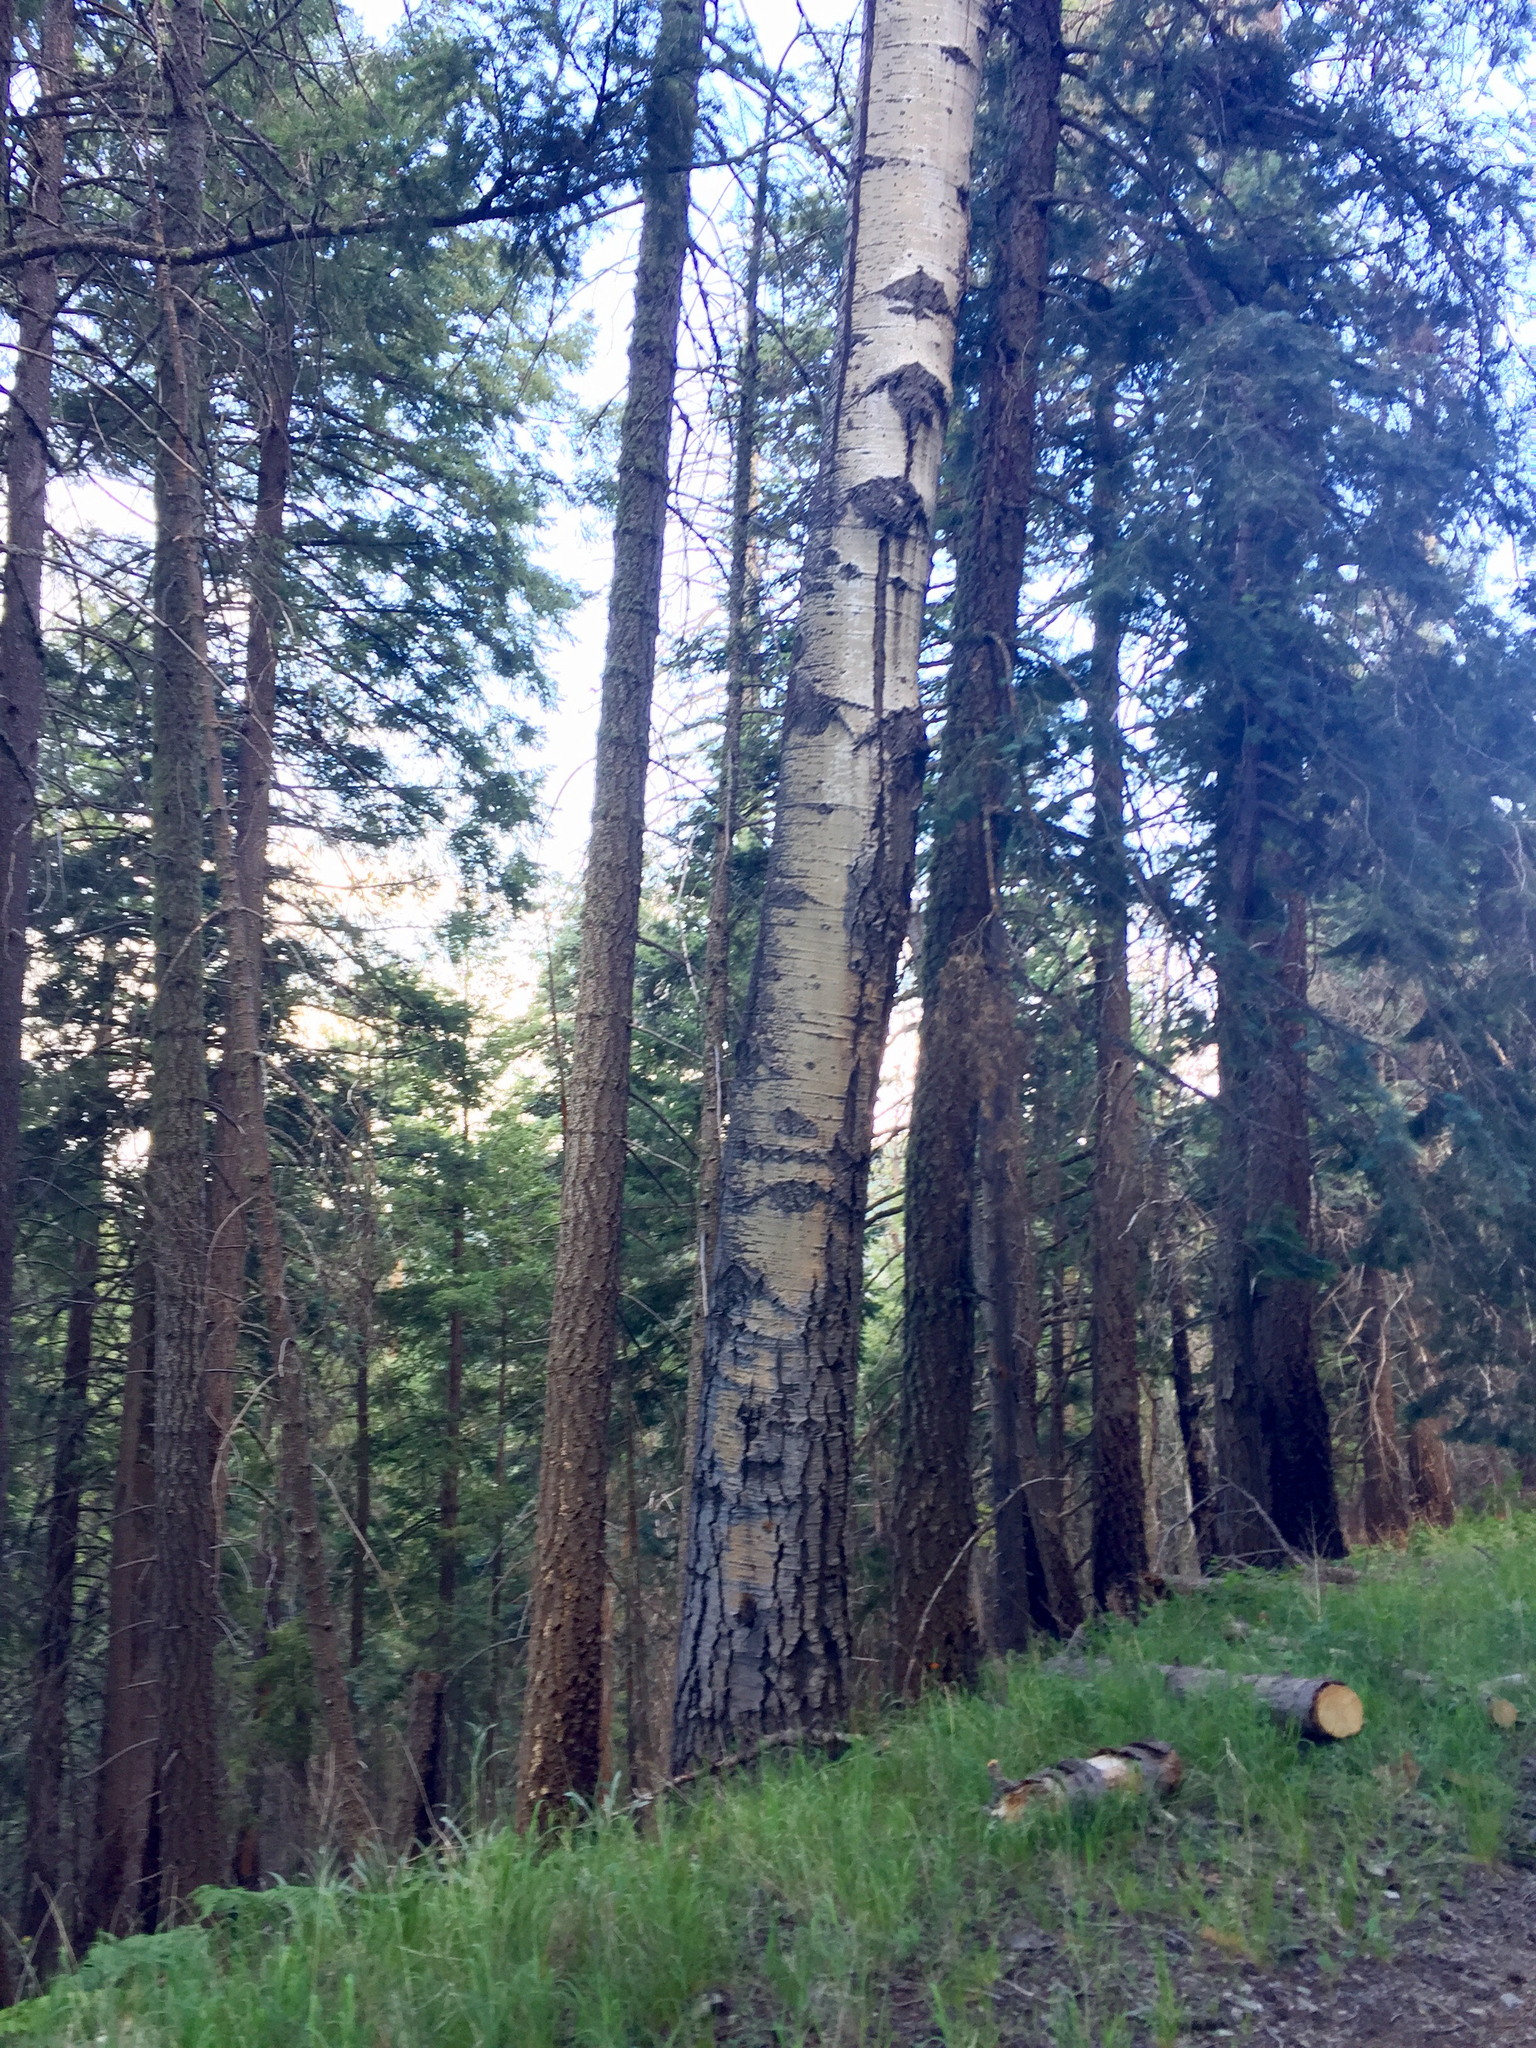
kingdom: Plantae
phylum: Tracheophyta
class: Magnoliopsida
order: Malpighiales
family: Salicaceae
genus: Populus
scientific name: Populus tremuloides
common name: Quaking aspen
